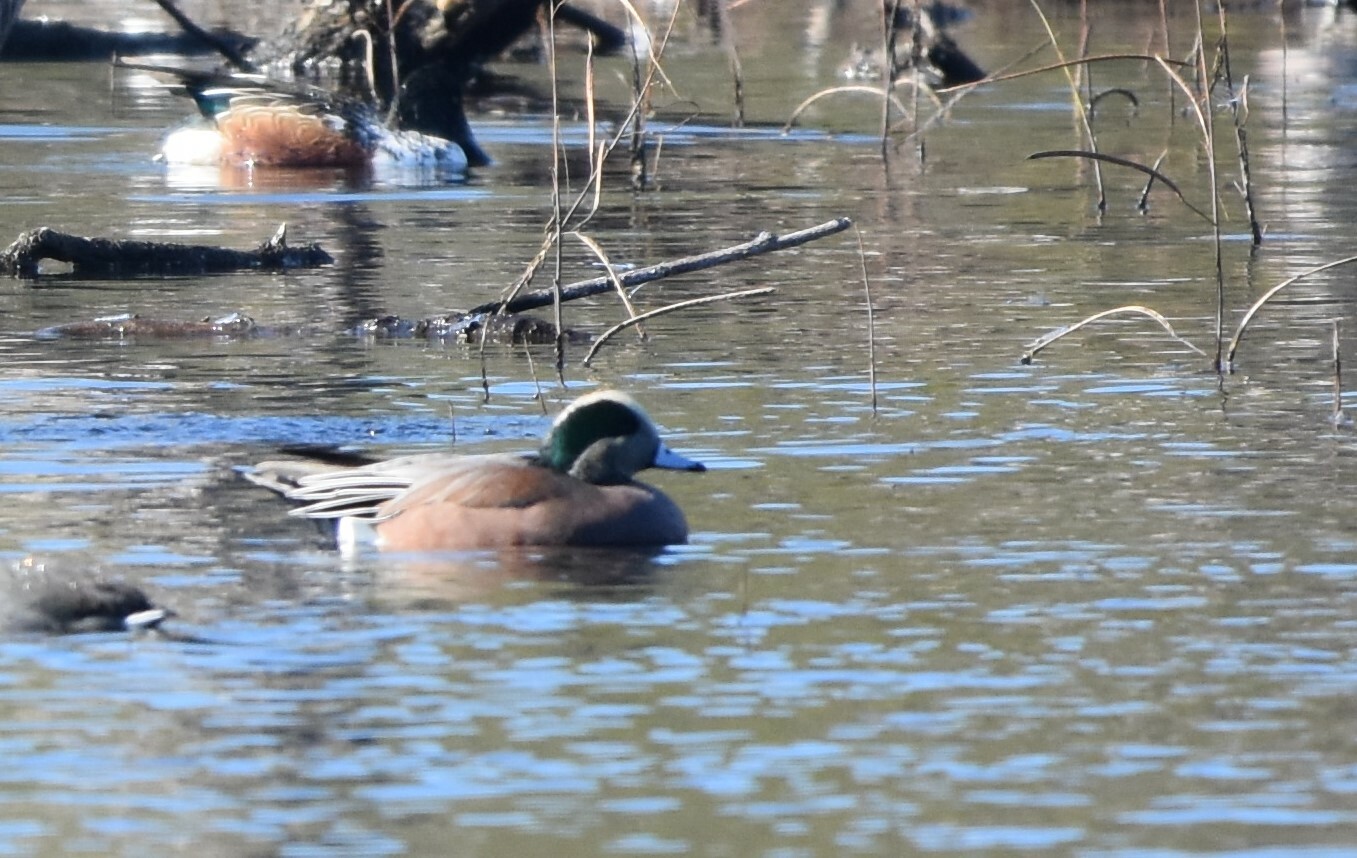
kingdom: Animalia
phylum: Chordata
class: Aves
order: Anseriformes
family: Anatidae
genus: Mareca
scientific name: Mareca americana
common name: American wigeon
